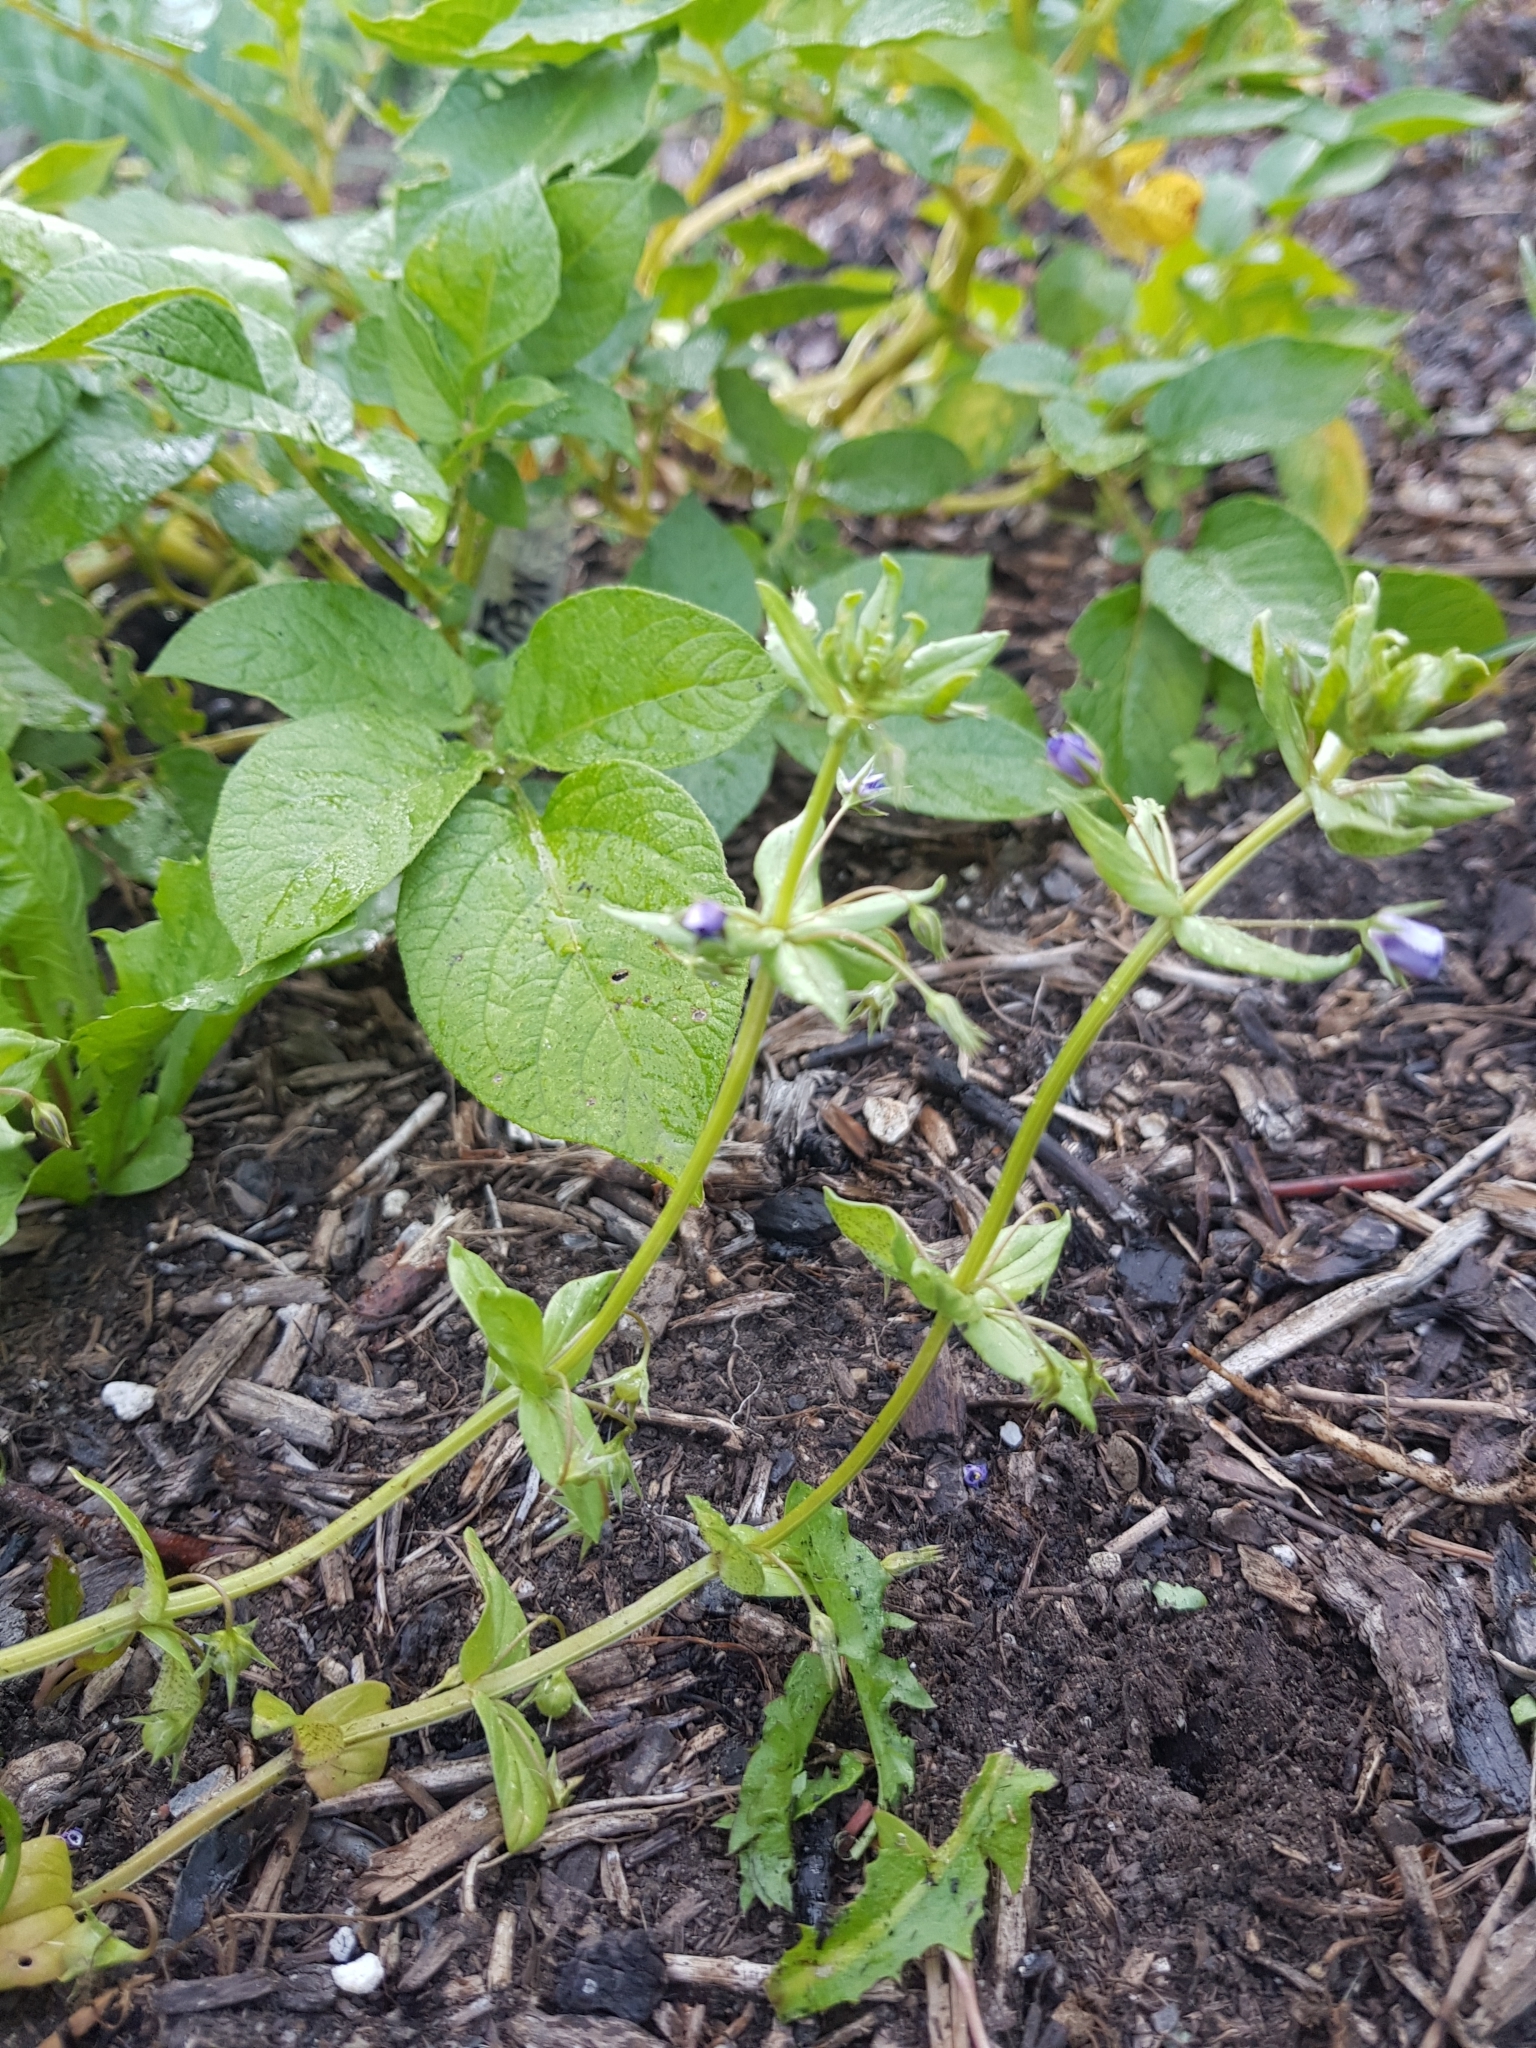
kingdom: Plantae
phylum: Tracheophyta
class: Magnoliopsida
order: Ericales
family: Primulaceae
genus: Lysimachia
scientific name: Lysimachia arvensis
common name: Scarlet pimpernel
